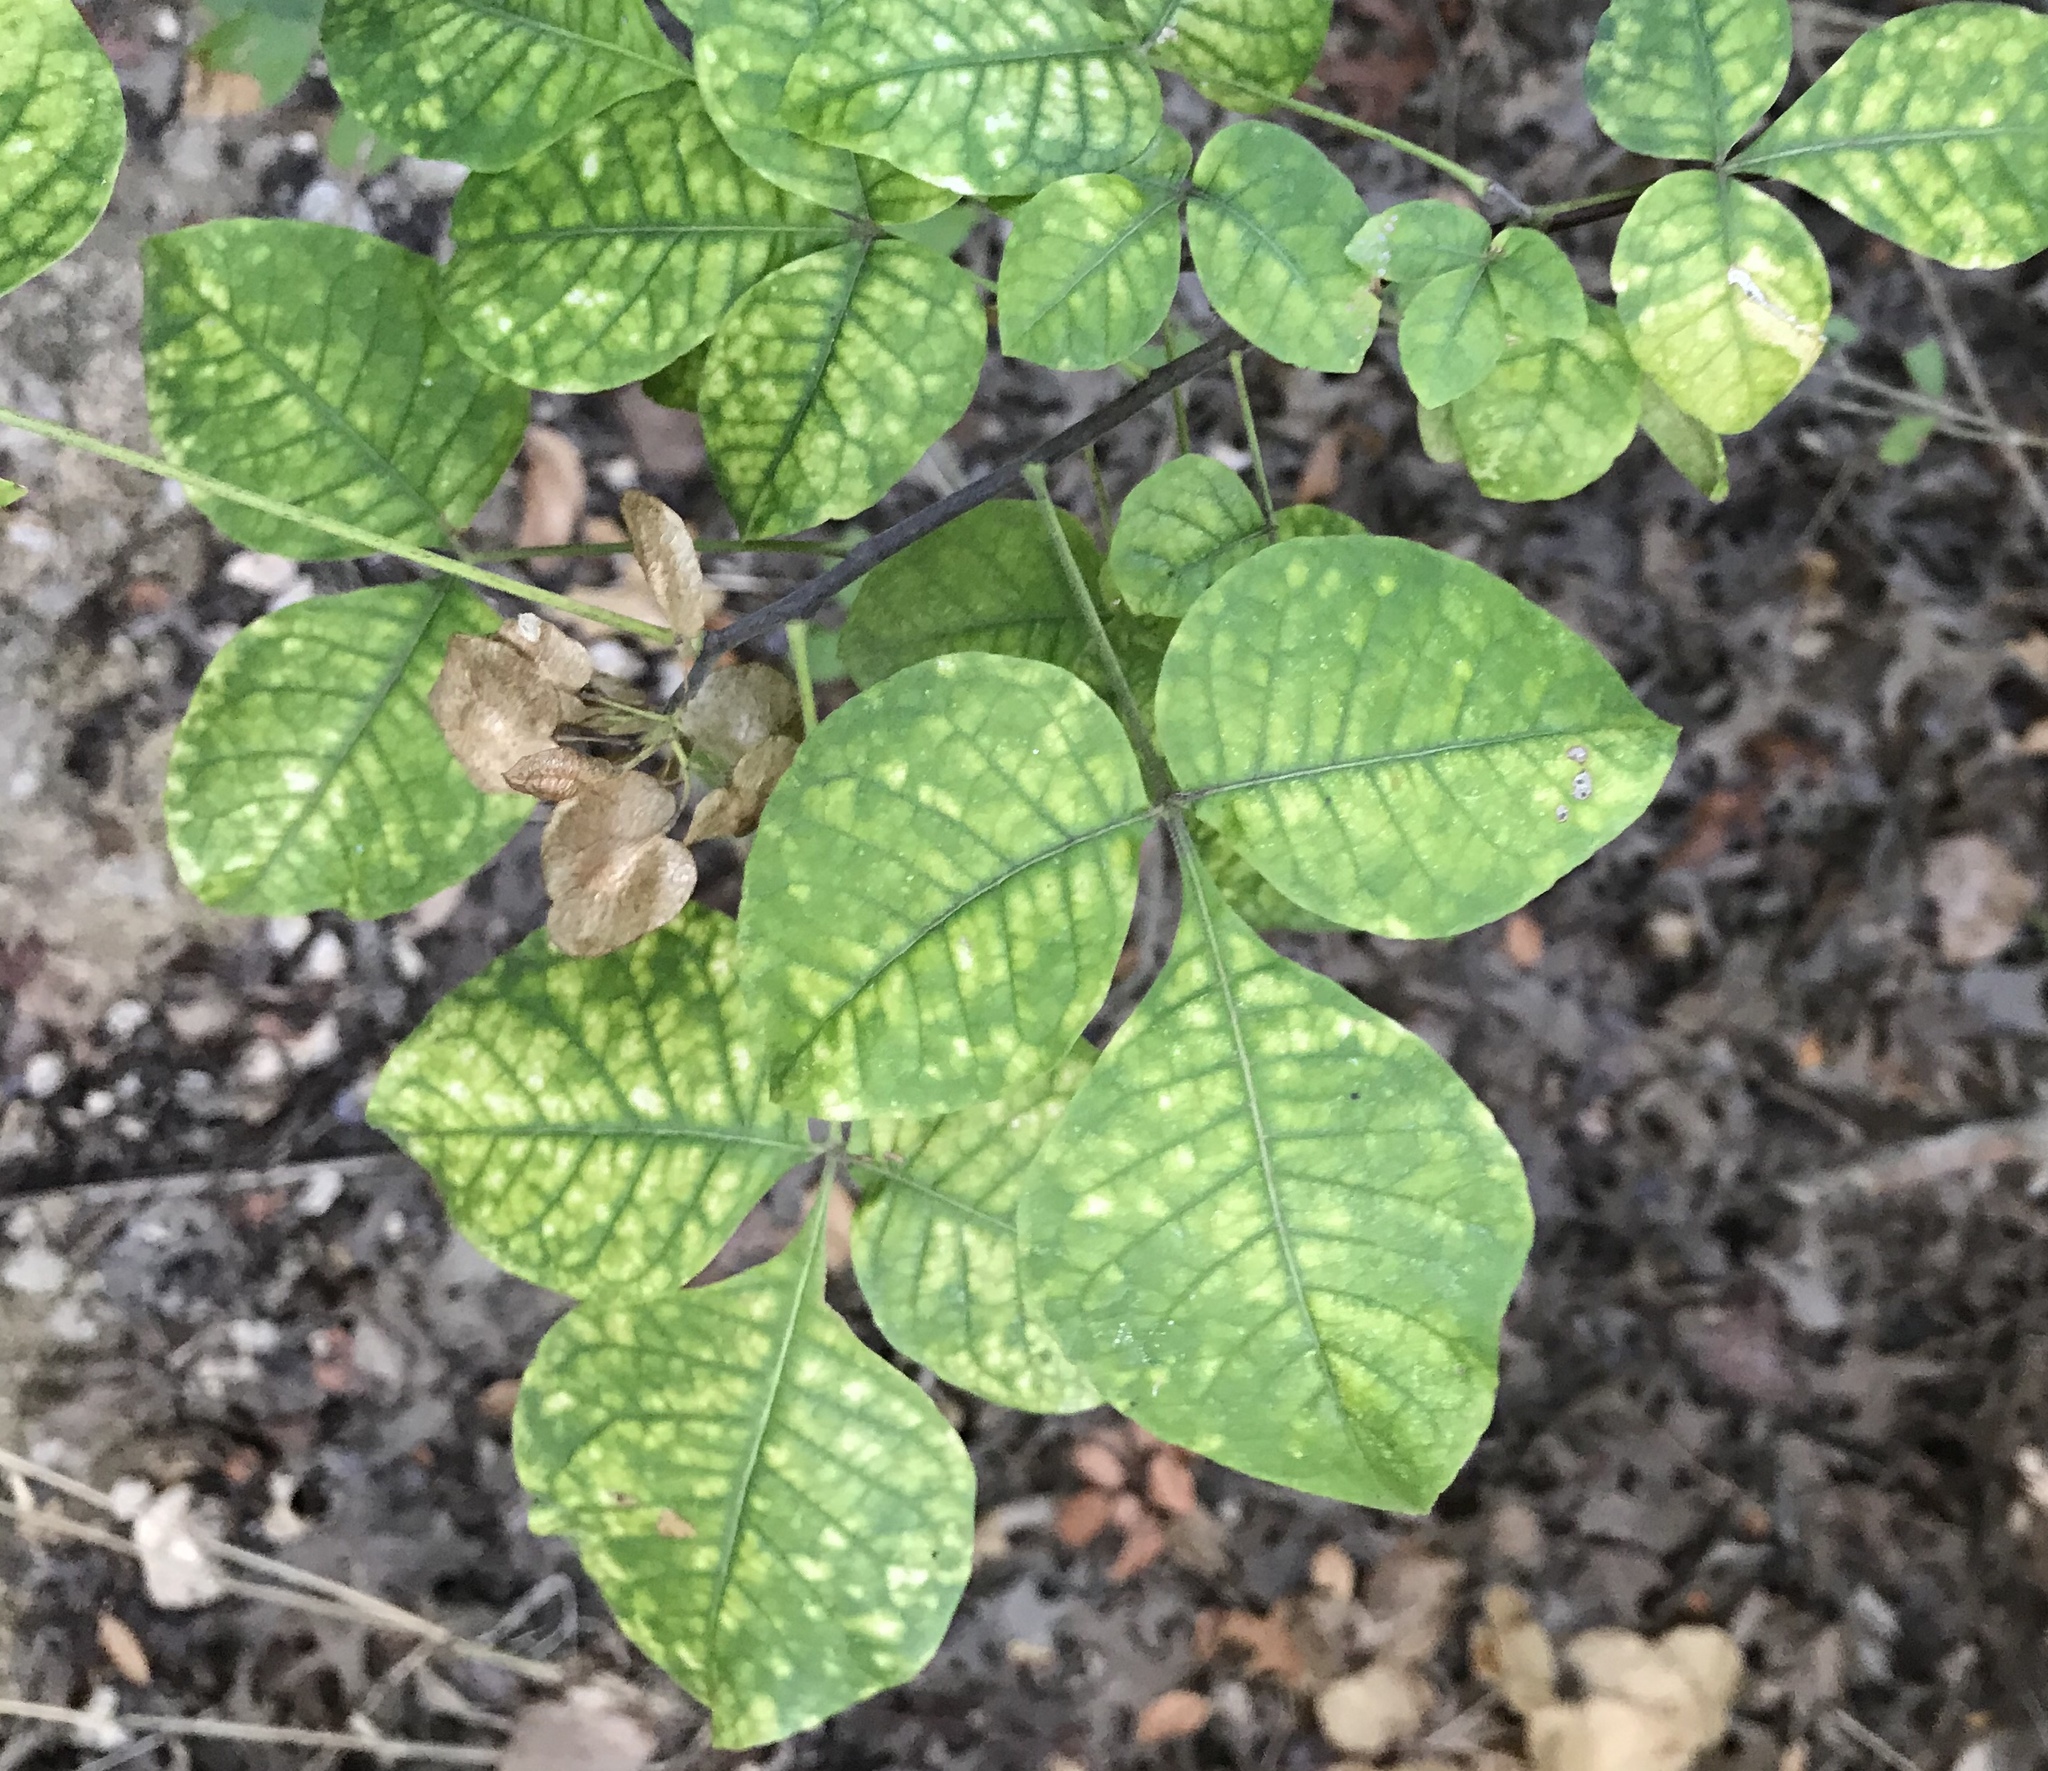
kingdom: Plantae
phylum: Tracheophyta
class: Magnoliopsida
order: Sapindales
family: Rutaceae
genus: Ptelea
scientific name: Ptelea trifoliata
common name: Common hop-tree
